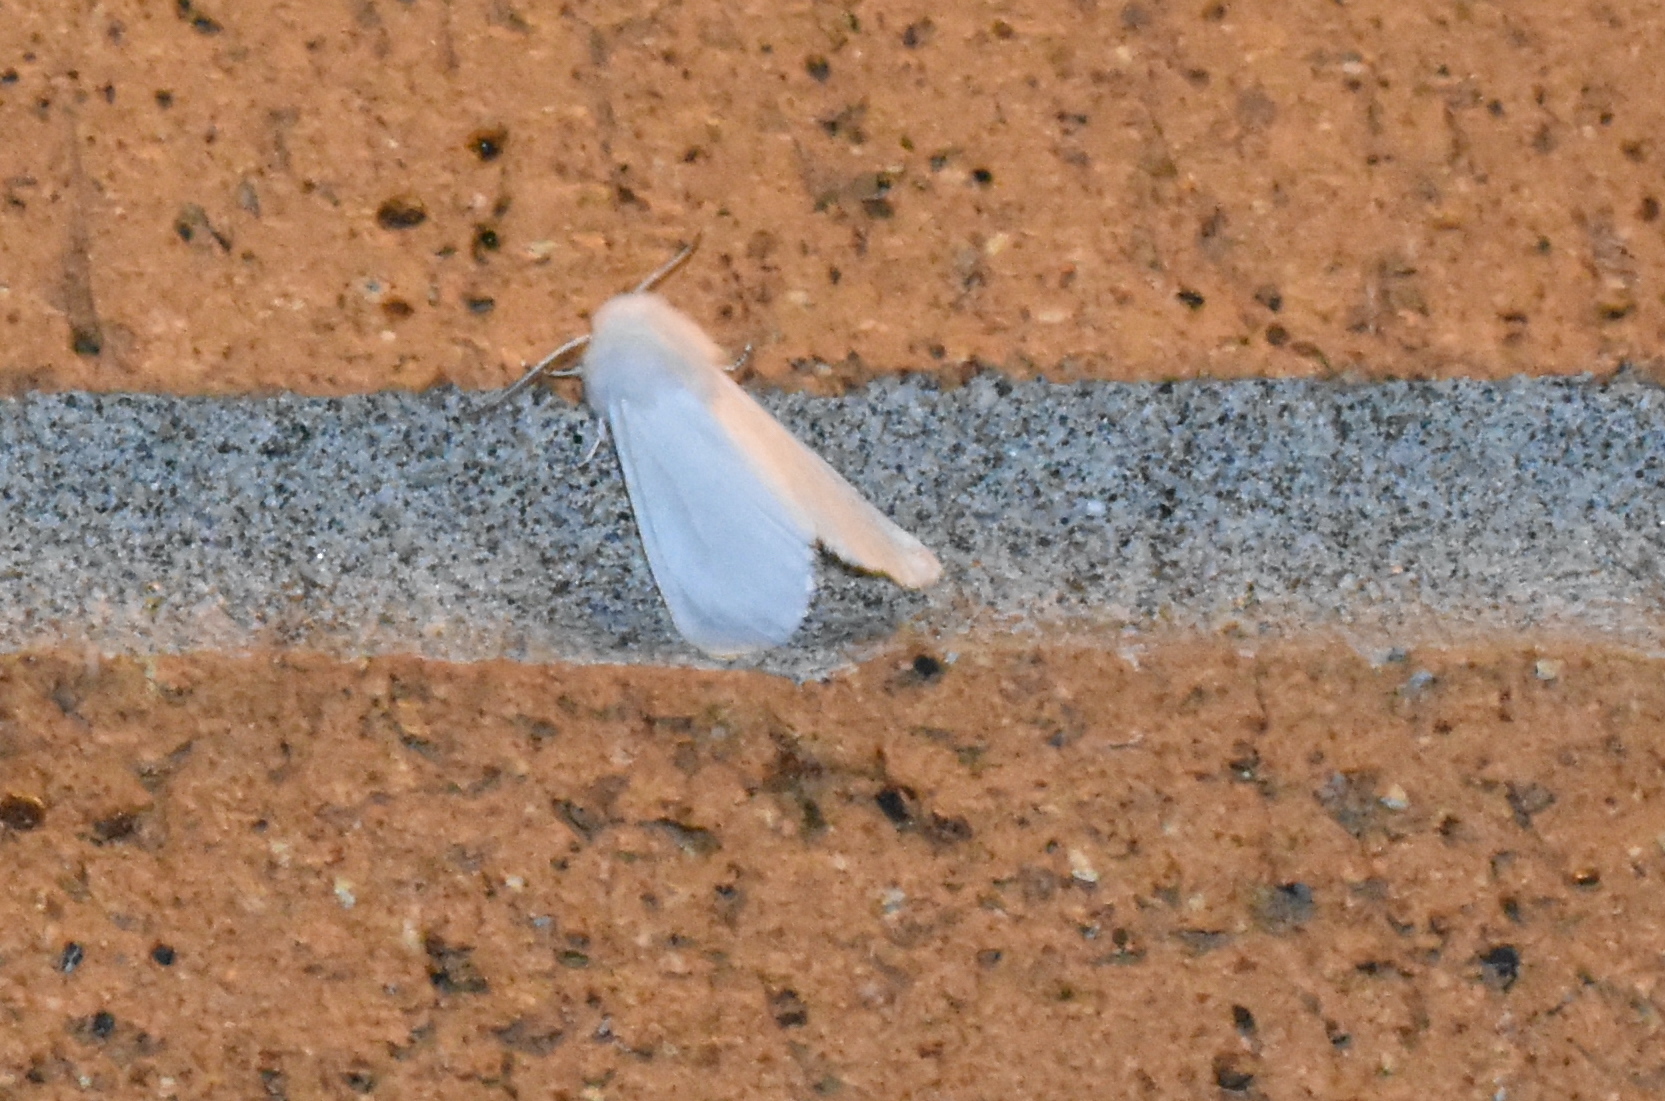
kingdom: Animalia
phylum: Arthropoda
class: Insecta
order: Lepidoptera
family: Erebidae
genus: Hyphantria
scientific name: Hyphantria cunea
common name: American white moth
